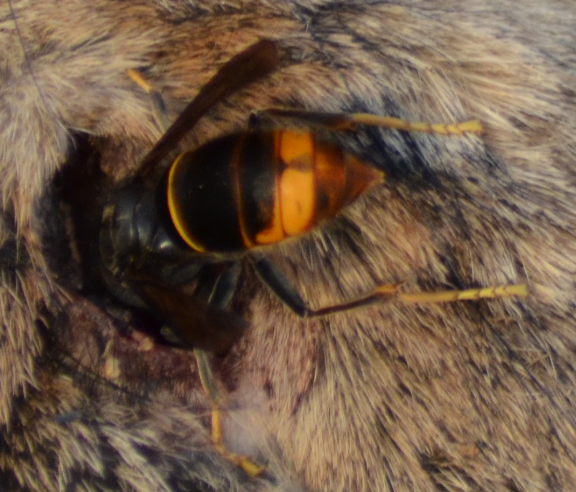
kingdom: Animalia
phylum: Arthropoda
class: Insecta
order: Hymenoptera
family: Vespidae
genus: Vespa
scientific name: Vespa velutina
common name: Asian hornet
